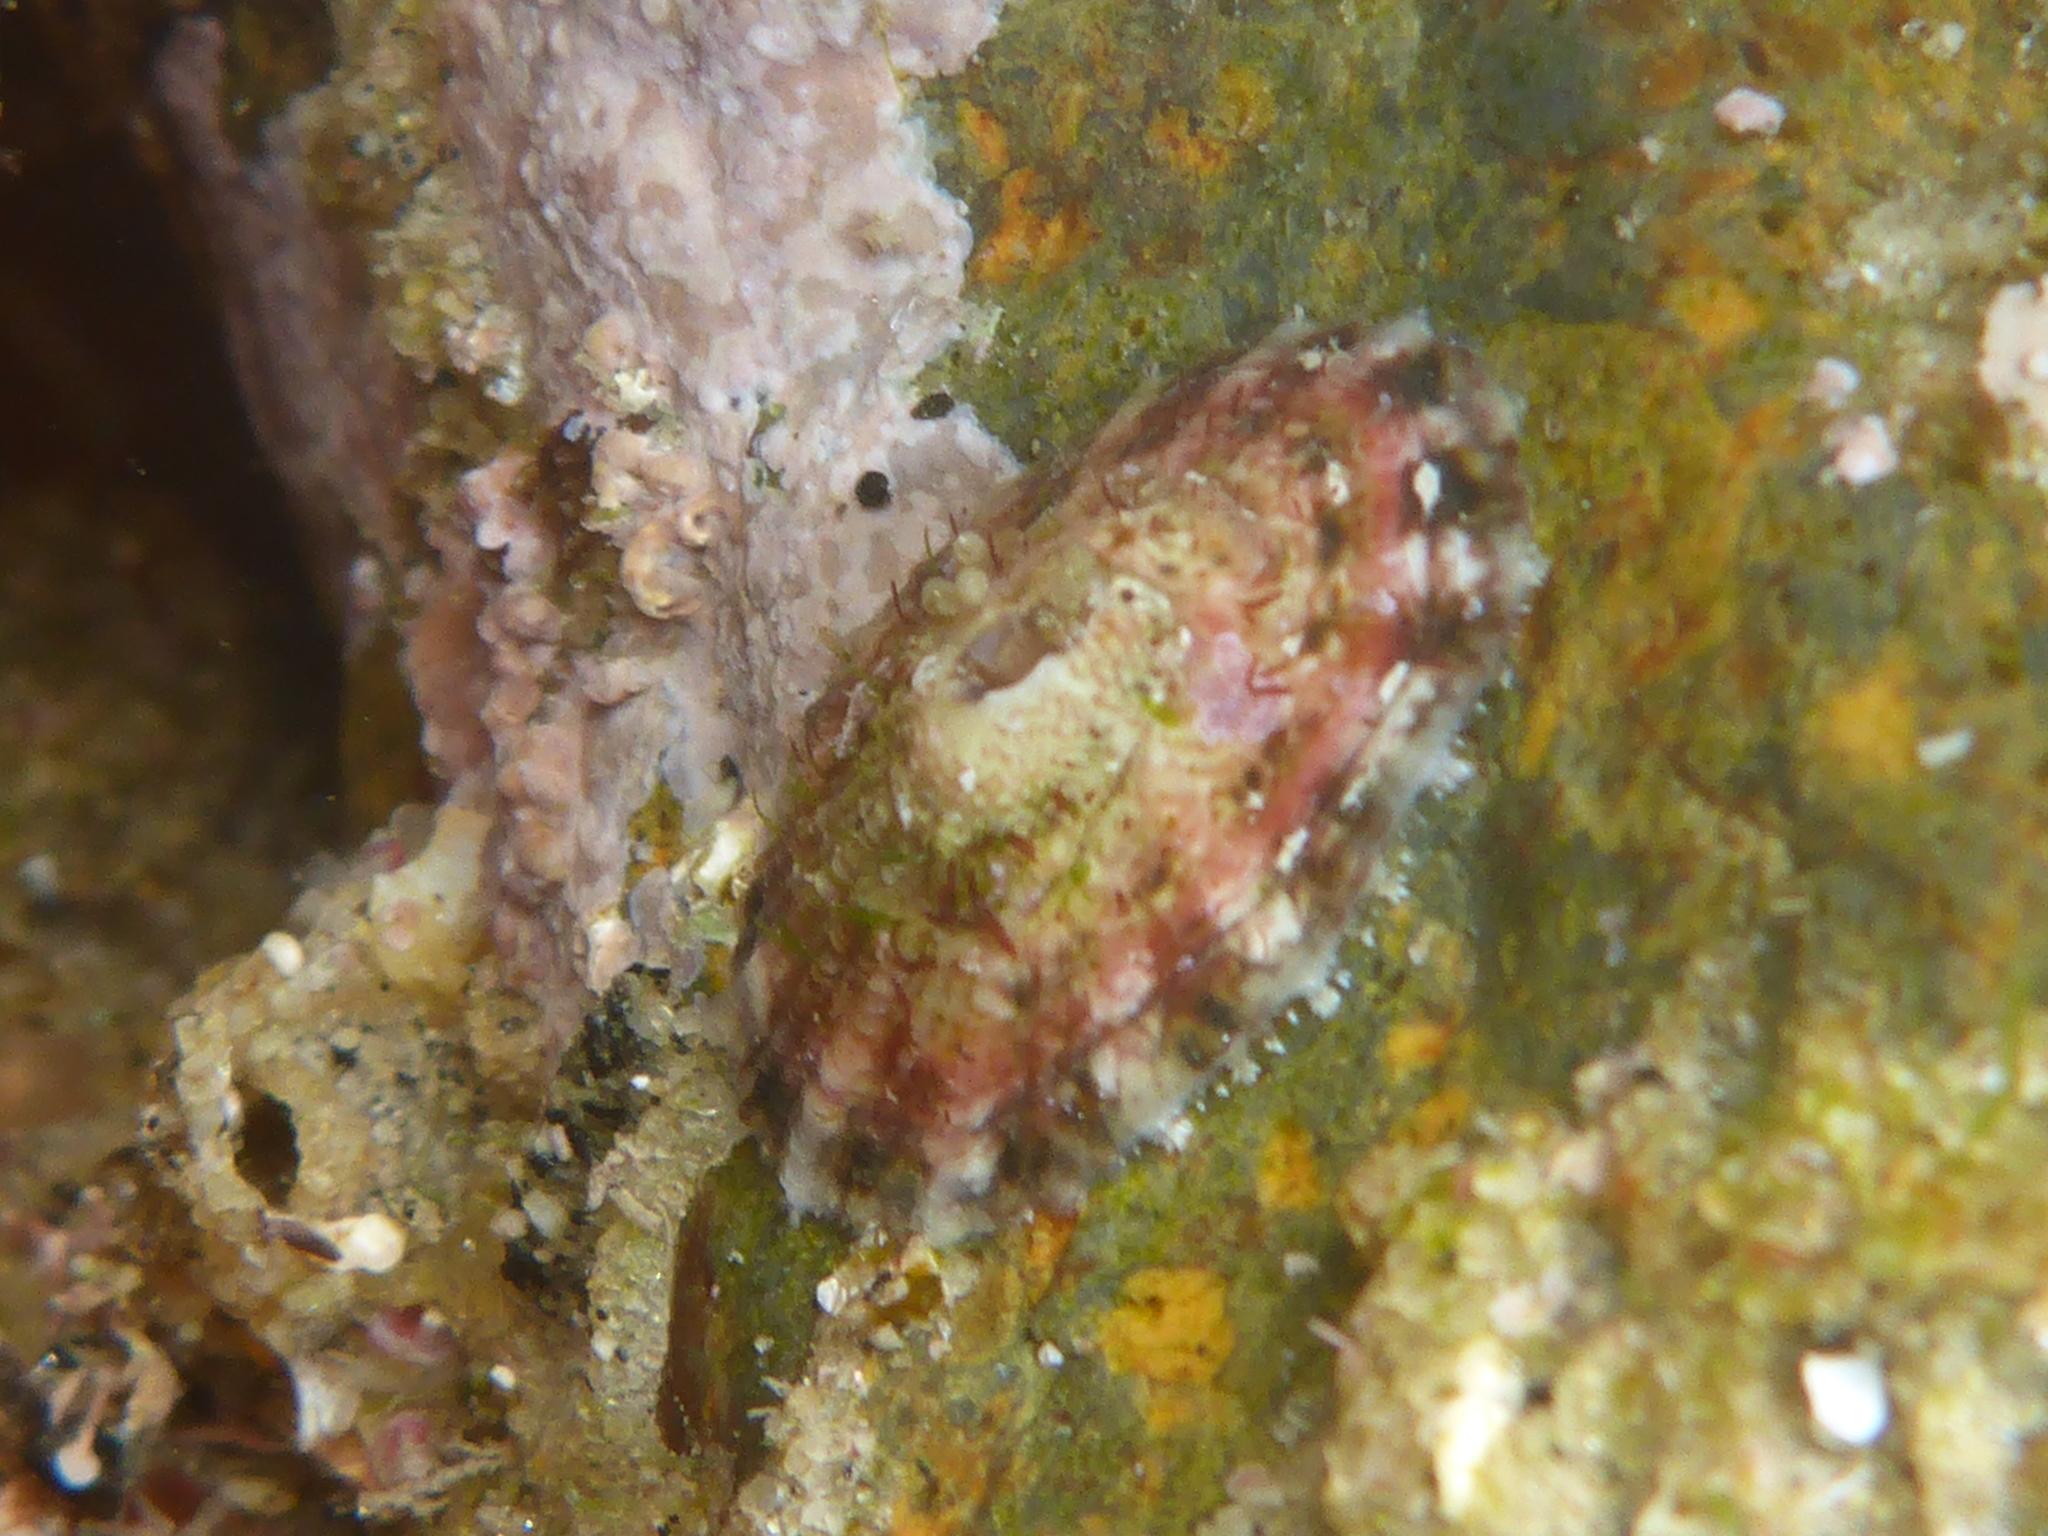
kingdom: Animalia
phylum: Mollusca
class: Gastropoda
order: Lepetellida
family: Fissurellidae
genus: Fissurella
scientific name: Fissurella volcano
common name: Volcano keyhole limpet
